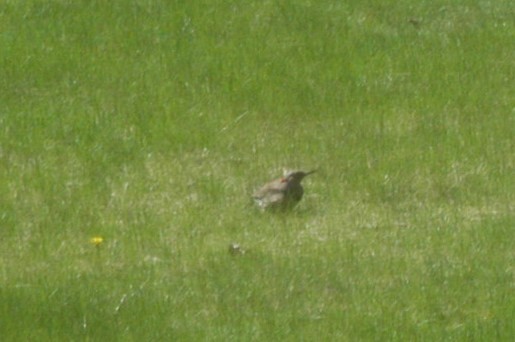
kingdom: Animalia
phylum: Chordata
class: Aves
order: Piciformes
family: Picidae
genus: Colaptes
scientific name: Colaptes auratus
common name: Northern flicker
